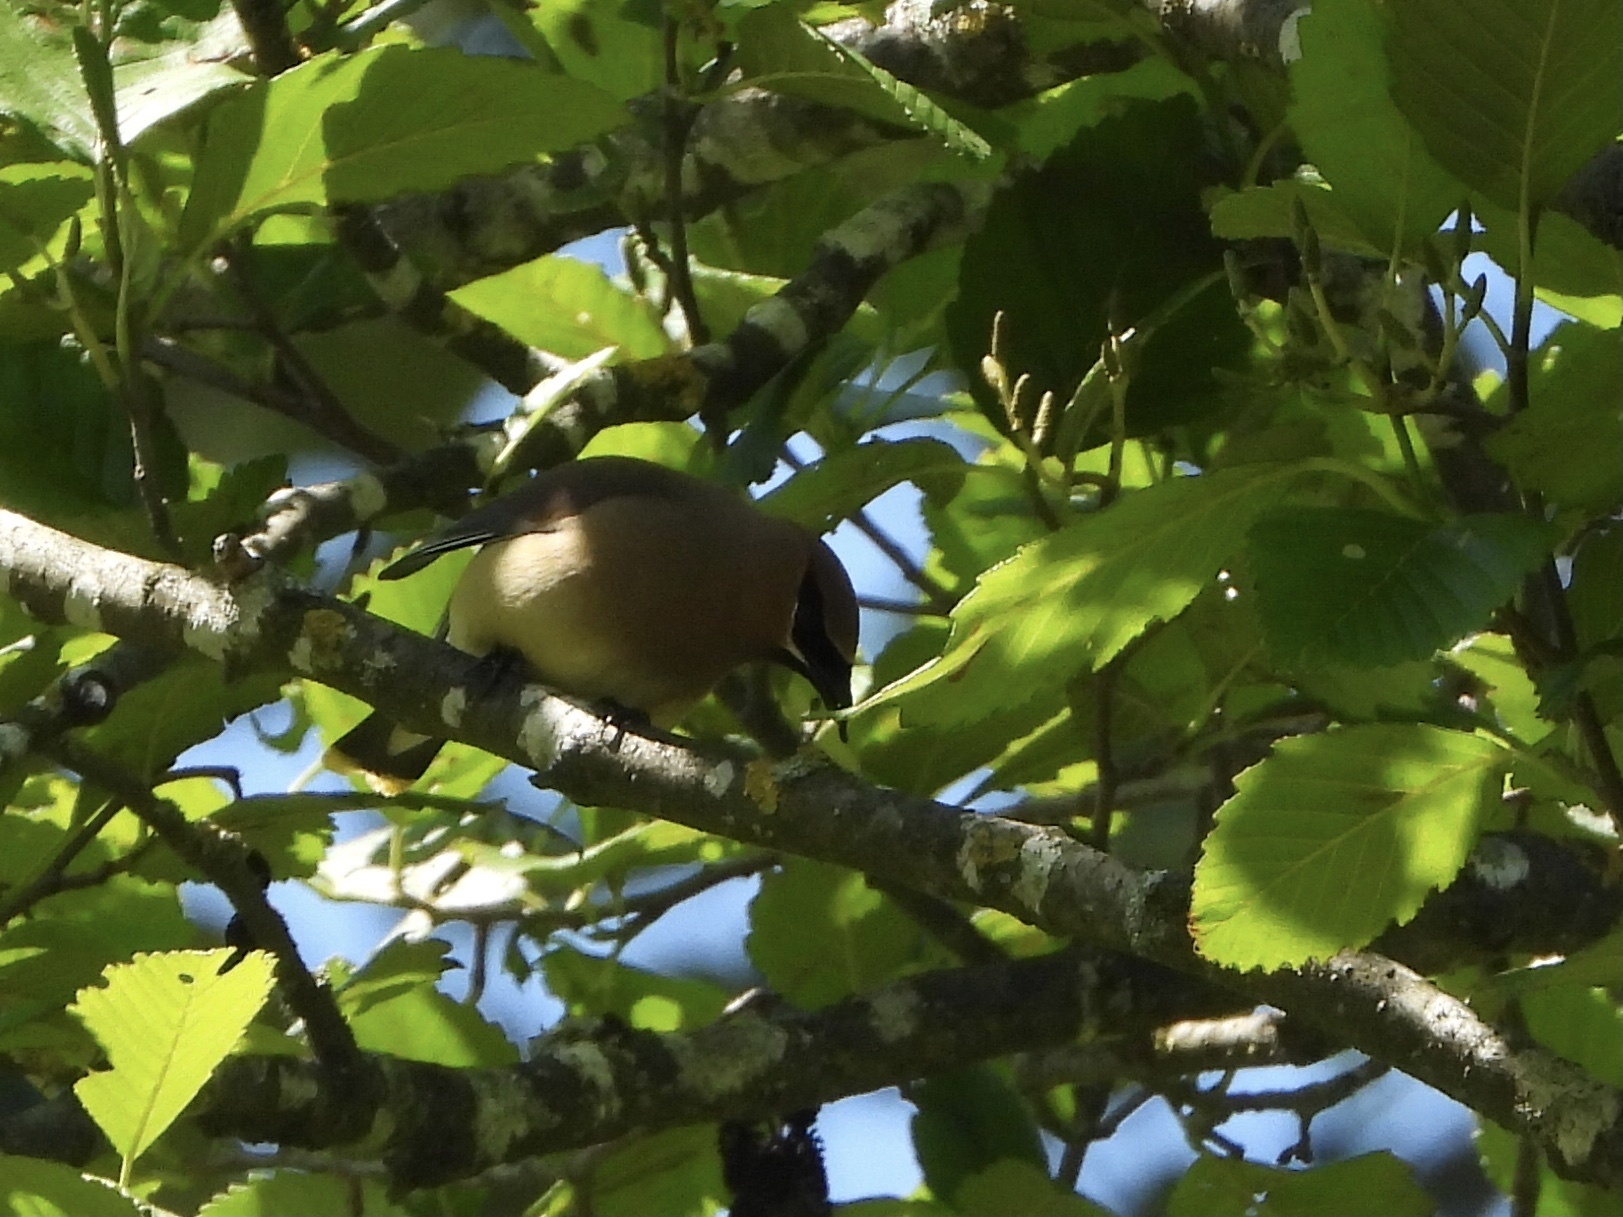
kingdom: Animalia
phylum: Chordata
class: Aves
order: Passeriformes
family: Bombycillidae
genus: Bombycilla
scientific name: Bombycilla cedrorum
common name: Cedar waxwing
